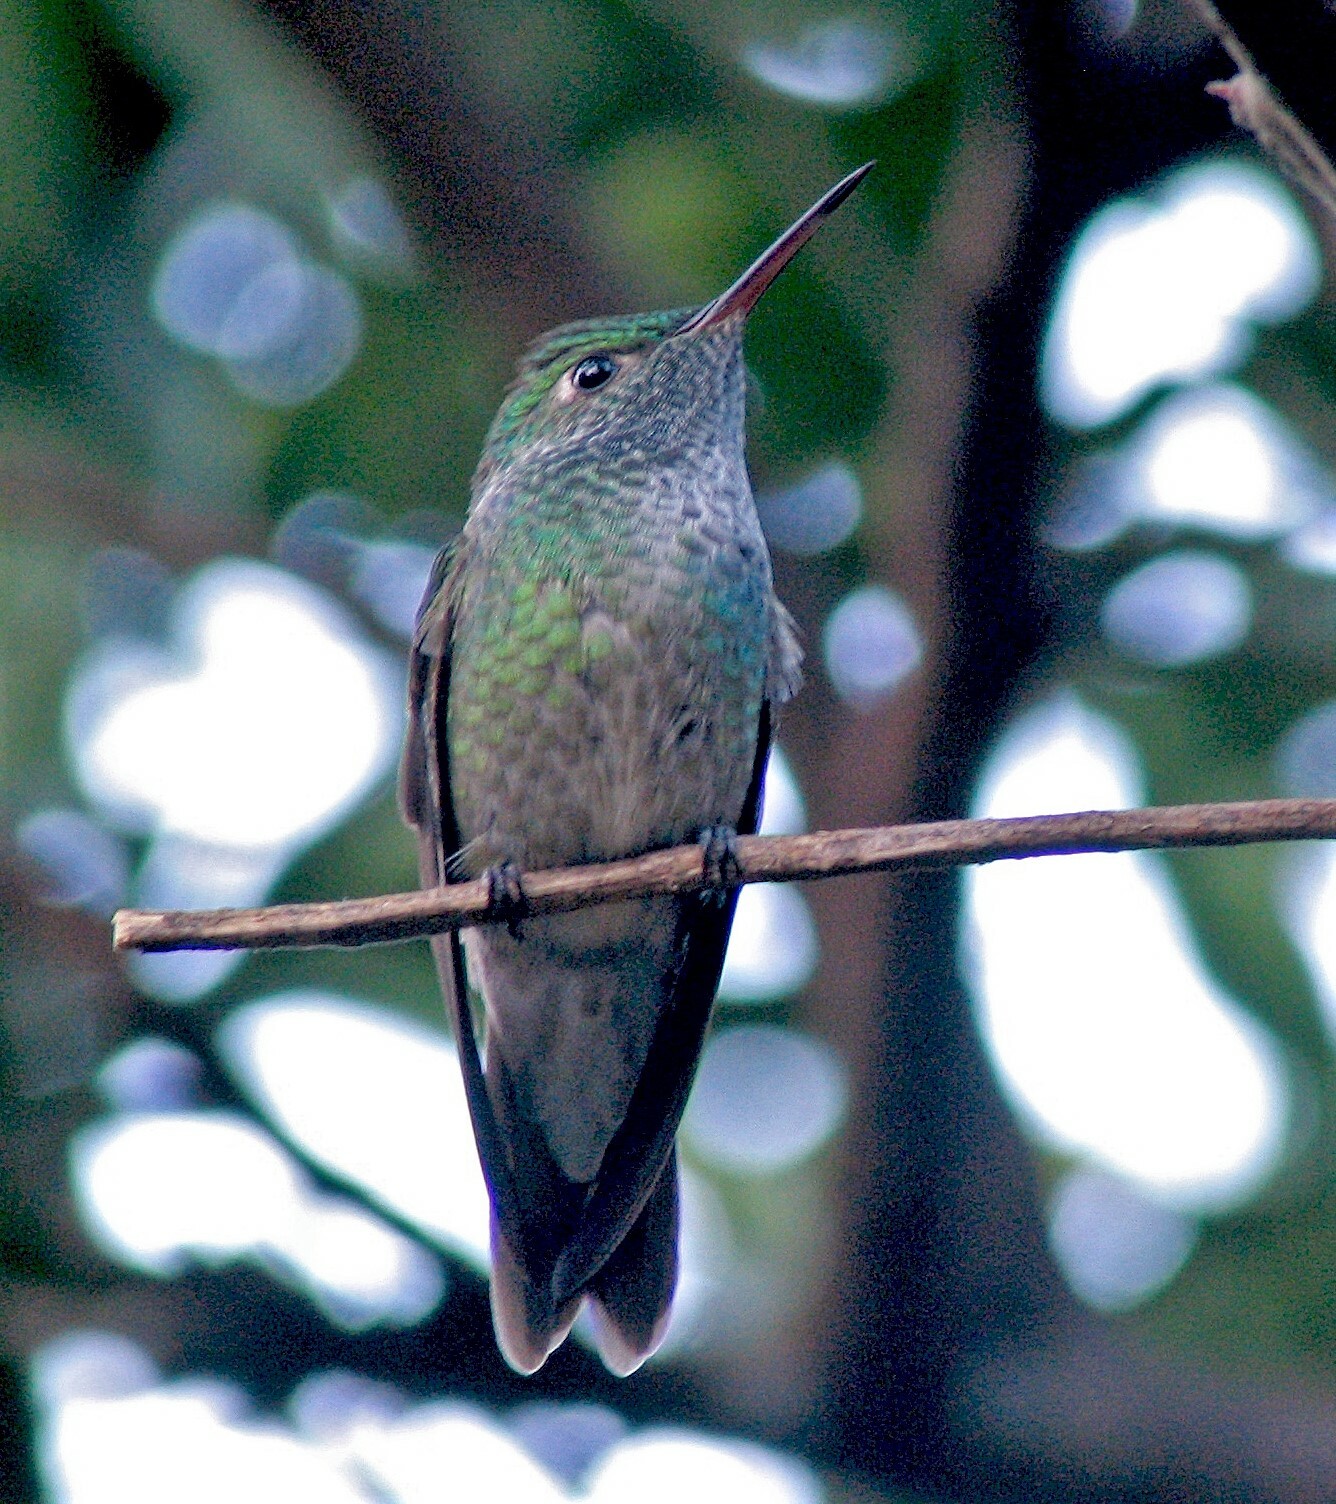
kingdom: Animalia
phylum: Chordata
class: Aves
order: Apodiformes
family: Trochilidae
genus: Chrysuronia
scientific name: Chrysuronia versicolor
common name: Versicolored emerald
